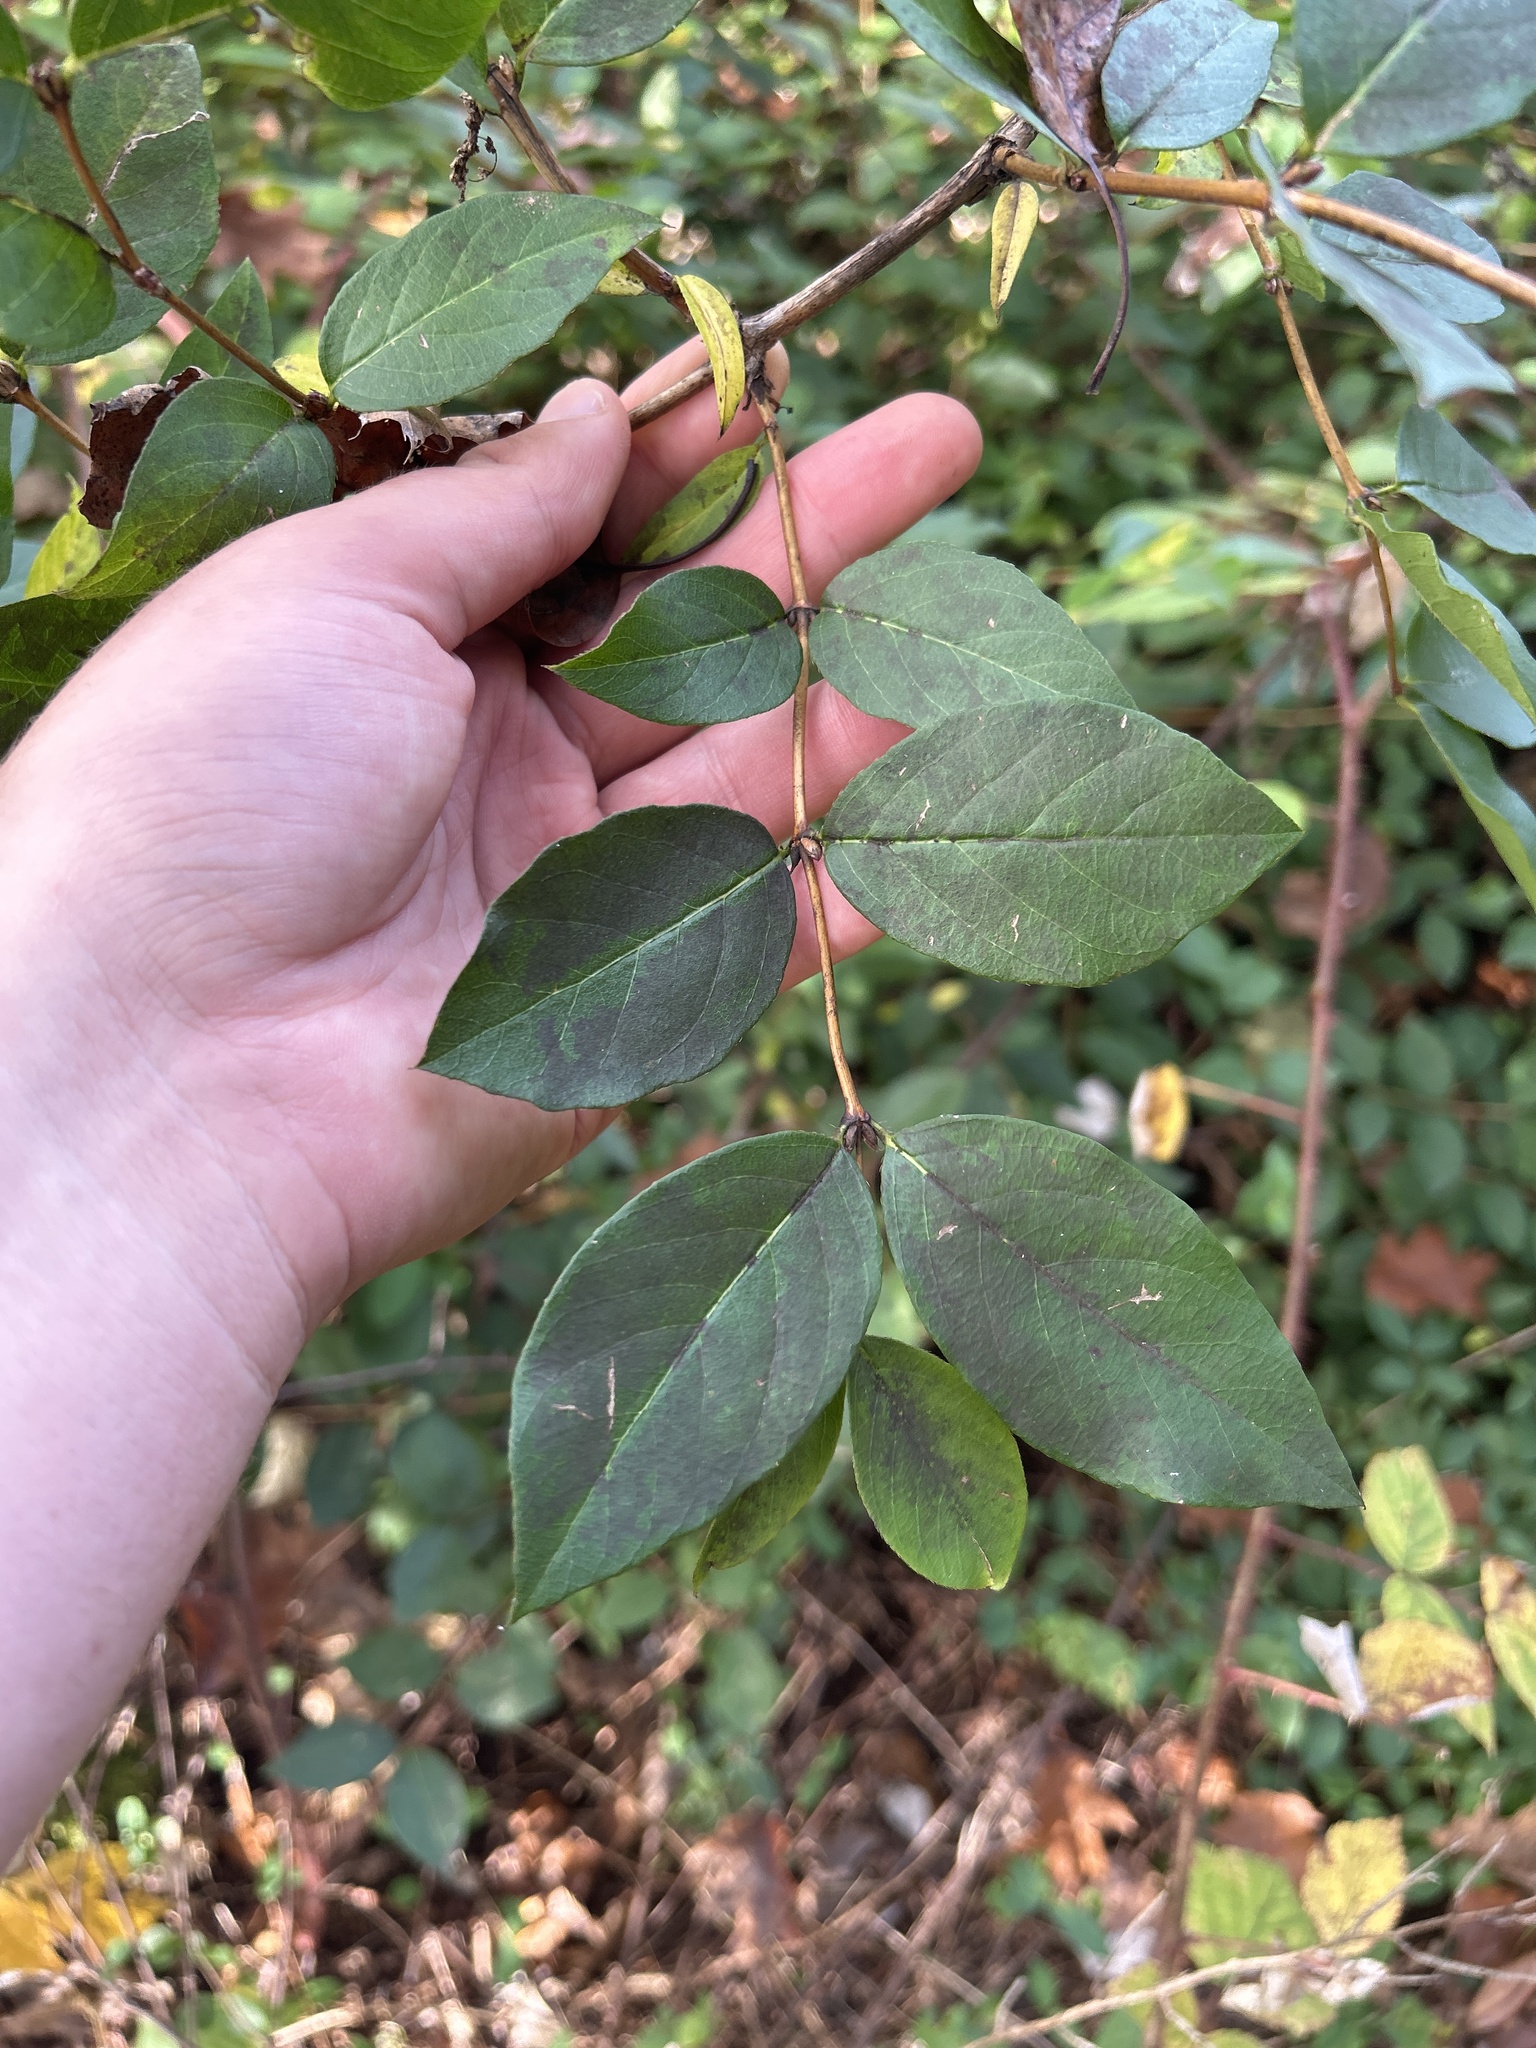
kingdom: Plantae
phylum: Tracheophyta
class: Magnoliopsida
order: Dipsacales
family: Caprifoliaceae
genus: Lonicera
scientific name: Lonicera fragrantissima
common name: Fragrant honeysuckle
